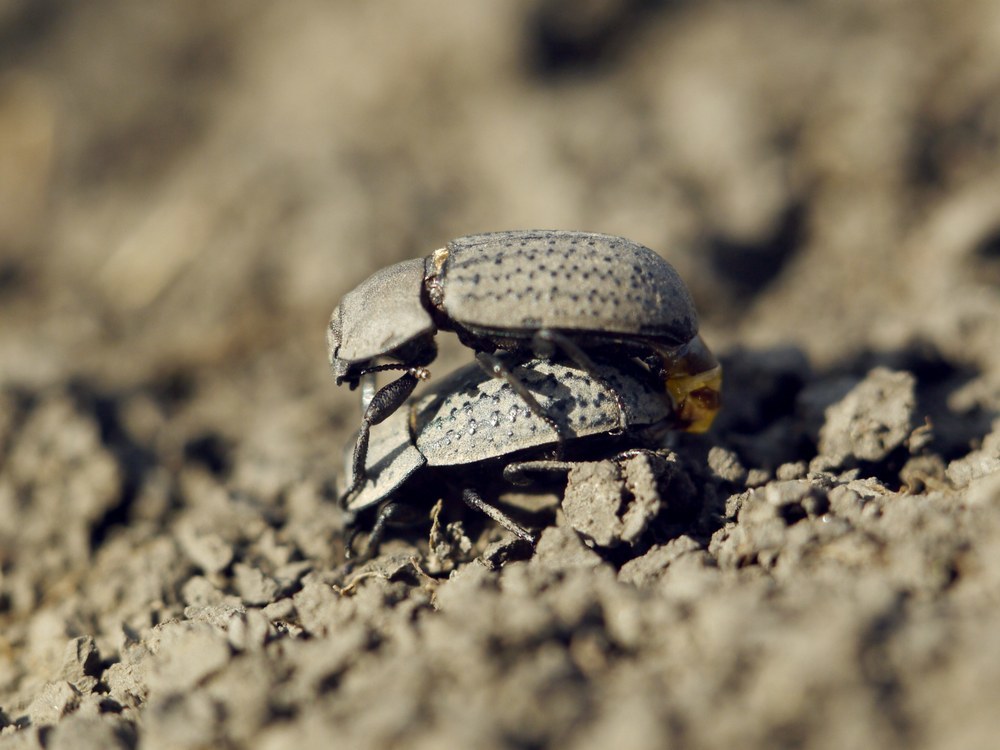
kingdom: Animalia
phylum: Arthropoda
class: Insecta
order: Coleoptera
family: Tenebrionidae
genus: Opatrum
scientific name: Opatrum sabulosum
